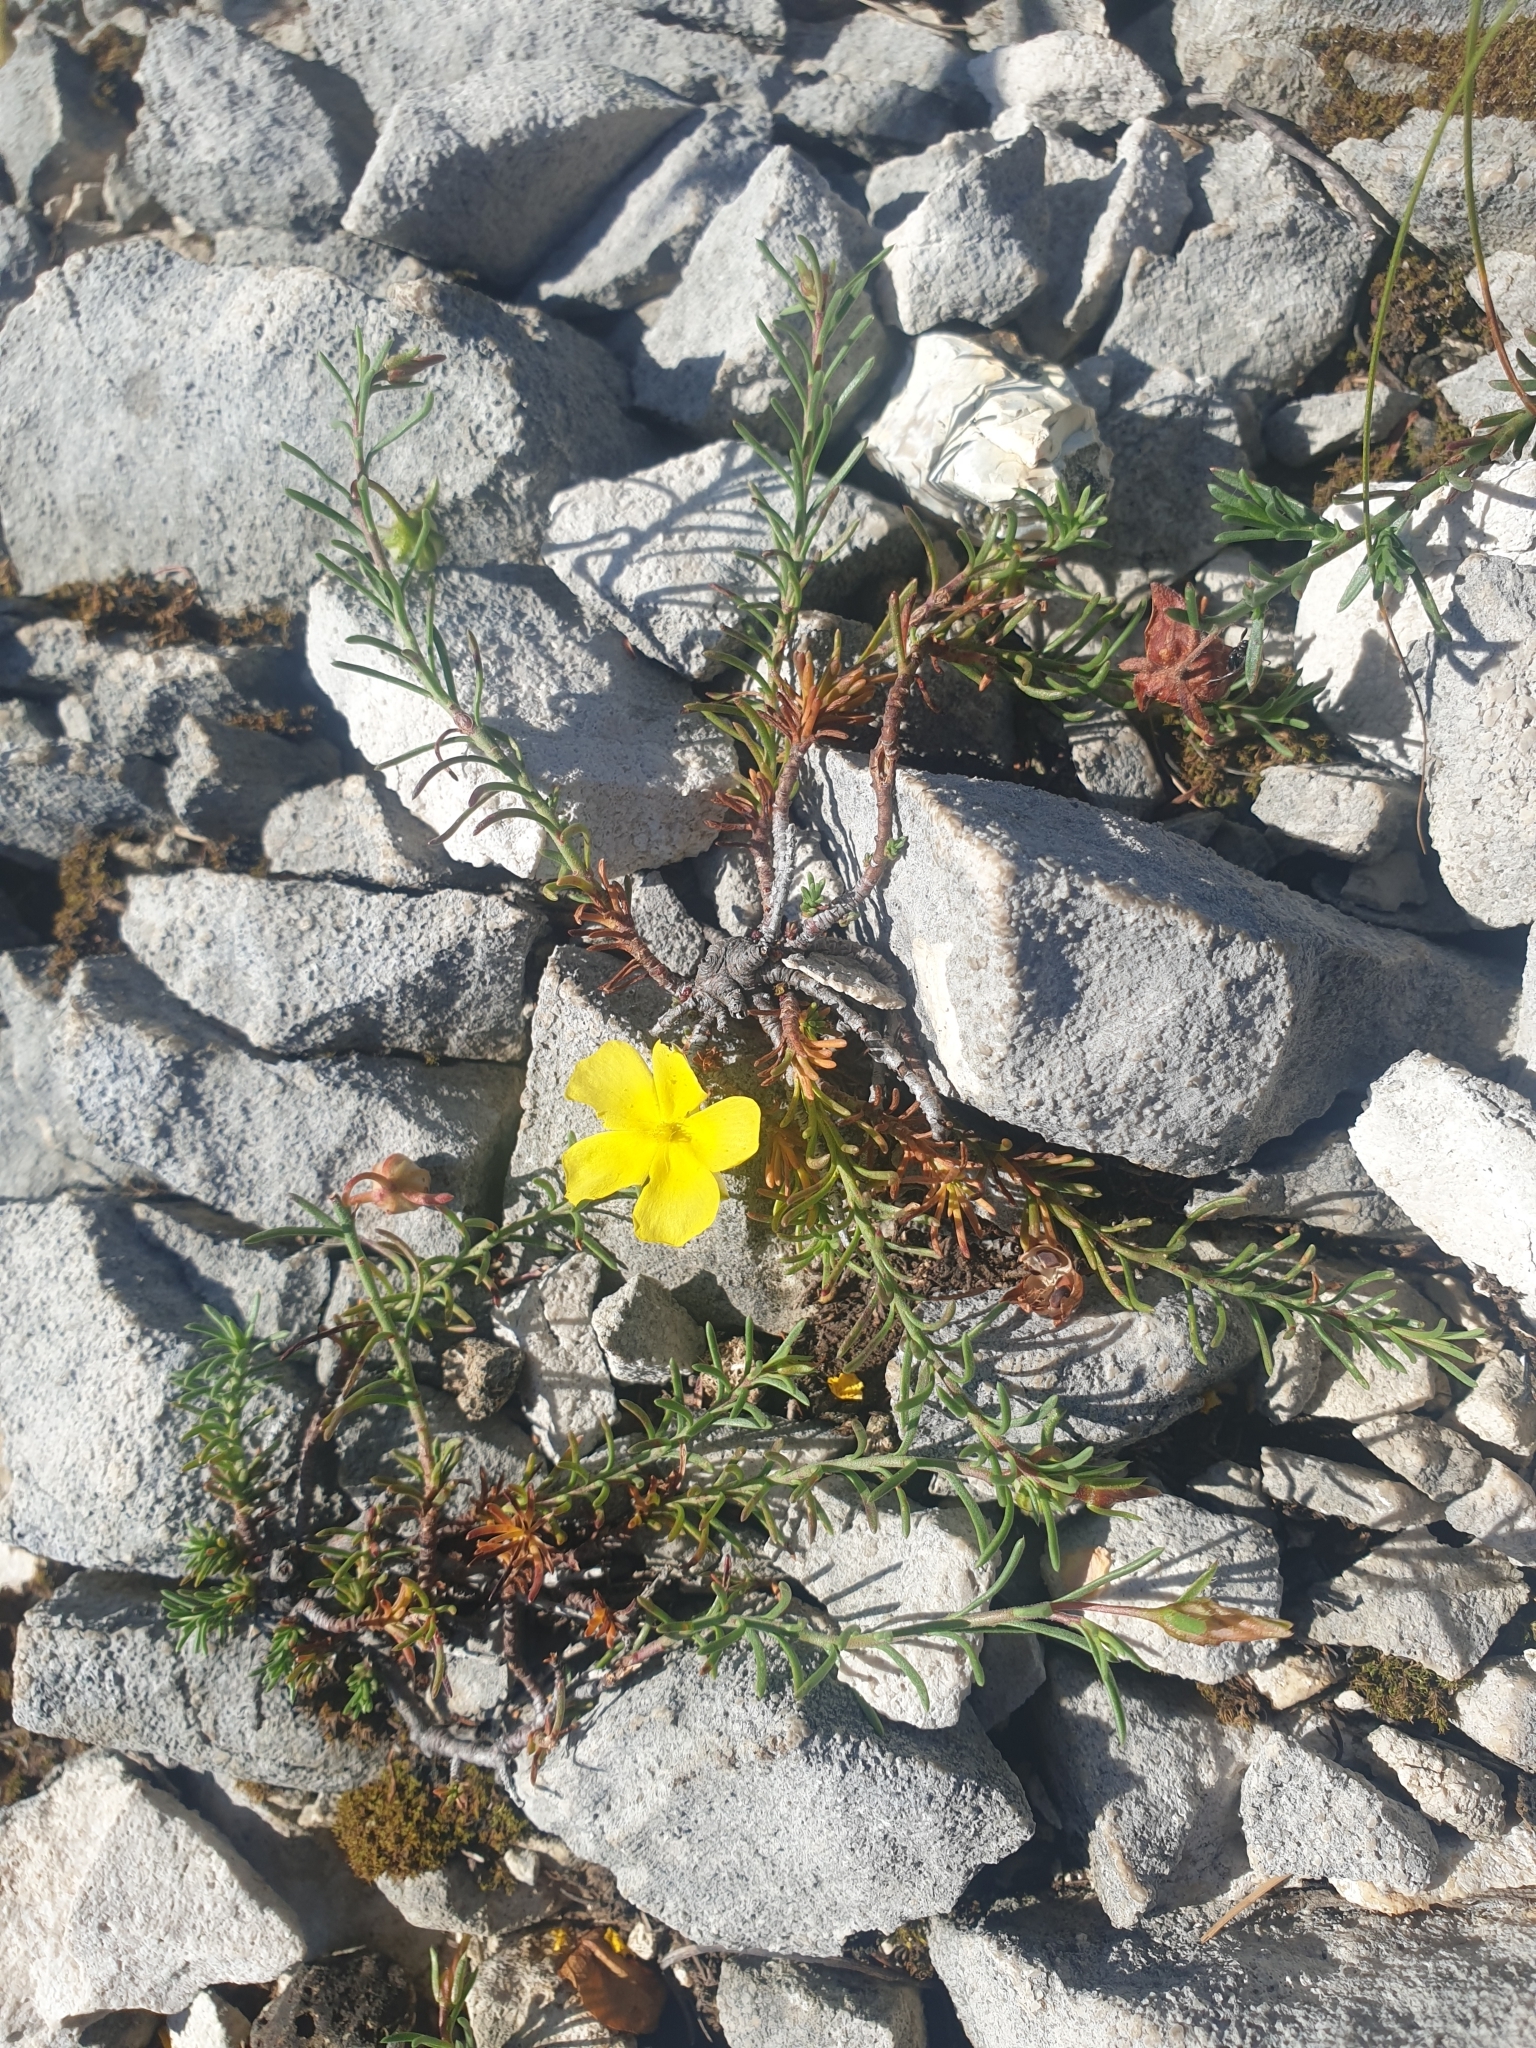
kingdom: Plantae
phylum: Tracheophyta
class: Magnoliopsida
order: Malvales
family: Cistaceae
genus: Fumana
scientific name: Fumana procumbens
